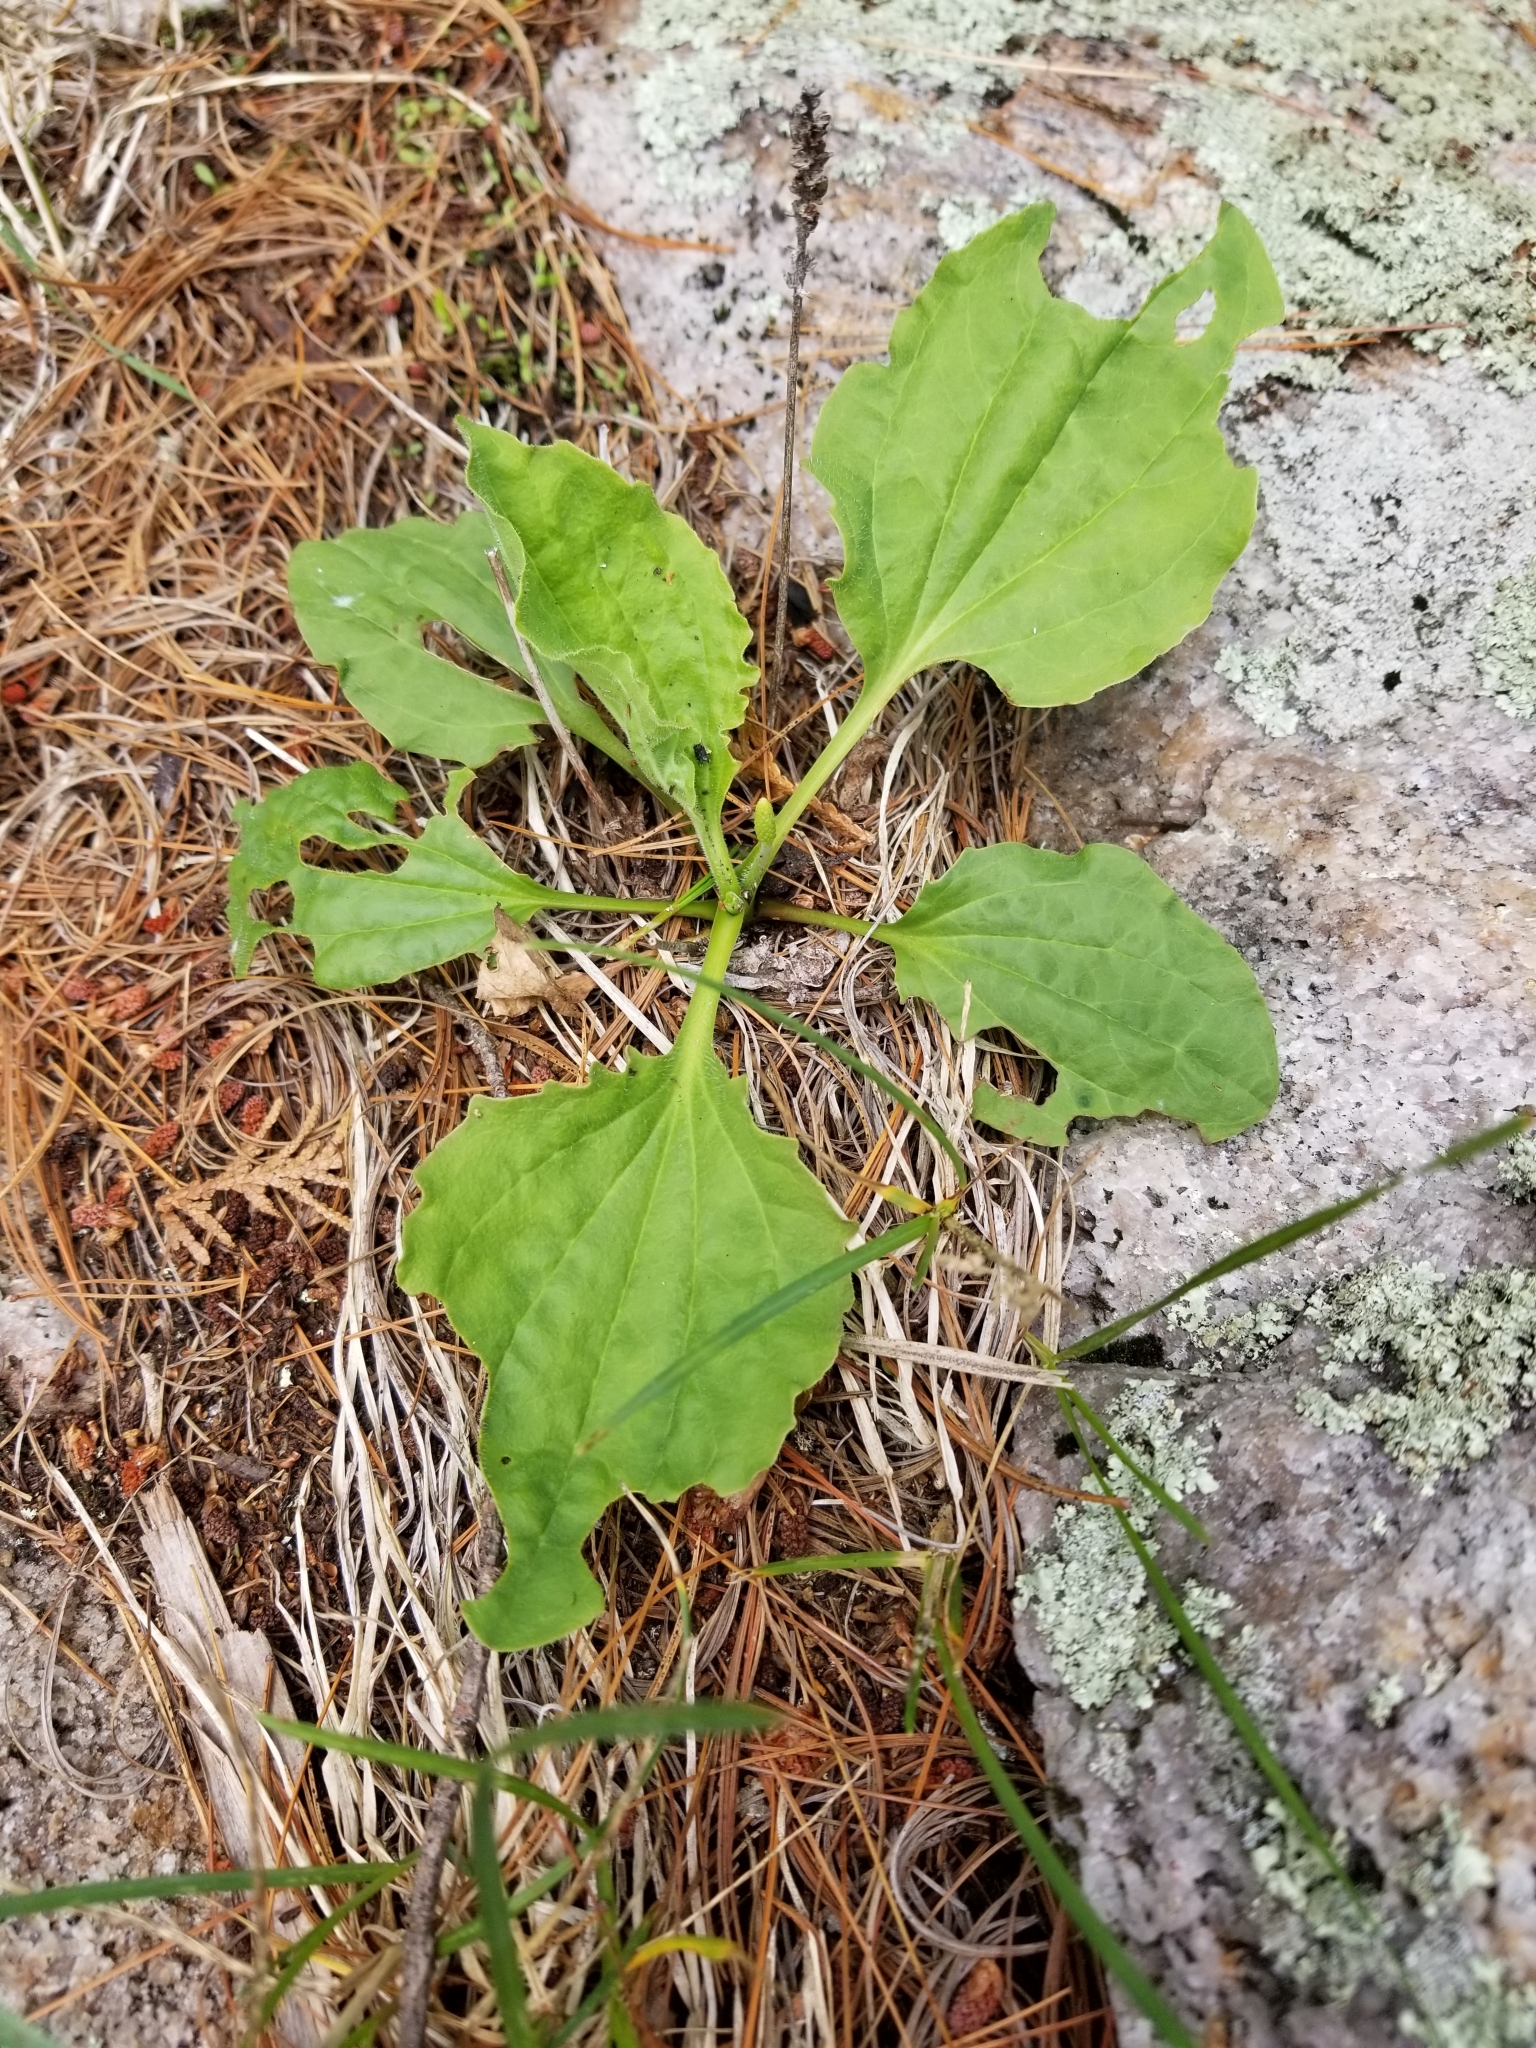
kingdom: Plantae
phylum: Tracheophyta
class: Magnoliopsida
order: Lamiales
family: Plantaginaceae
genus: Plantago
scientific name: Plantago major
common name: Common plantain
